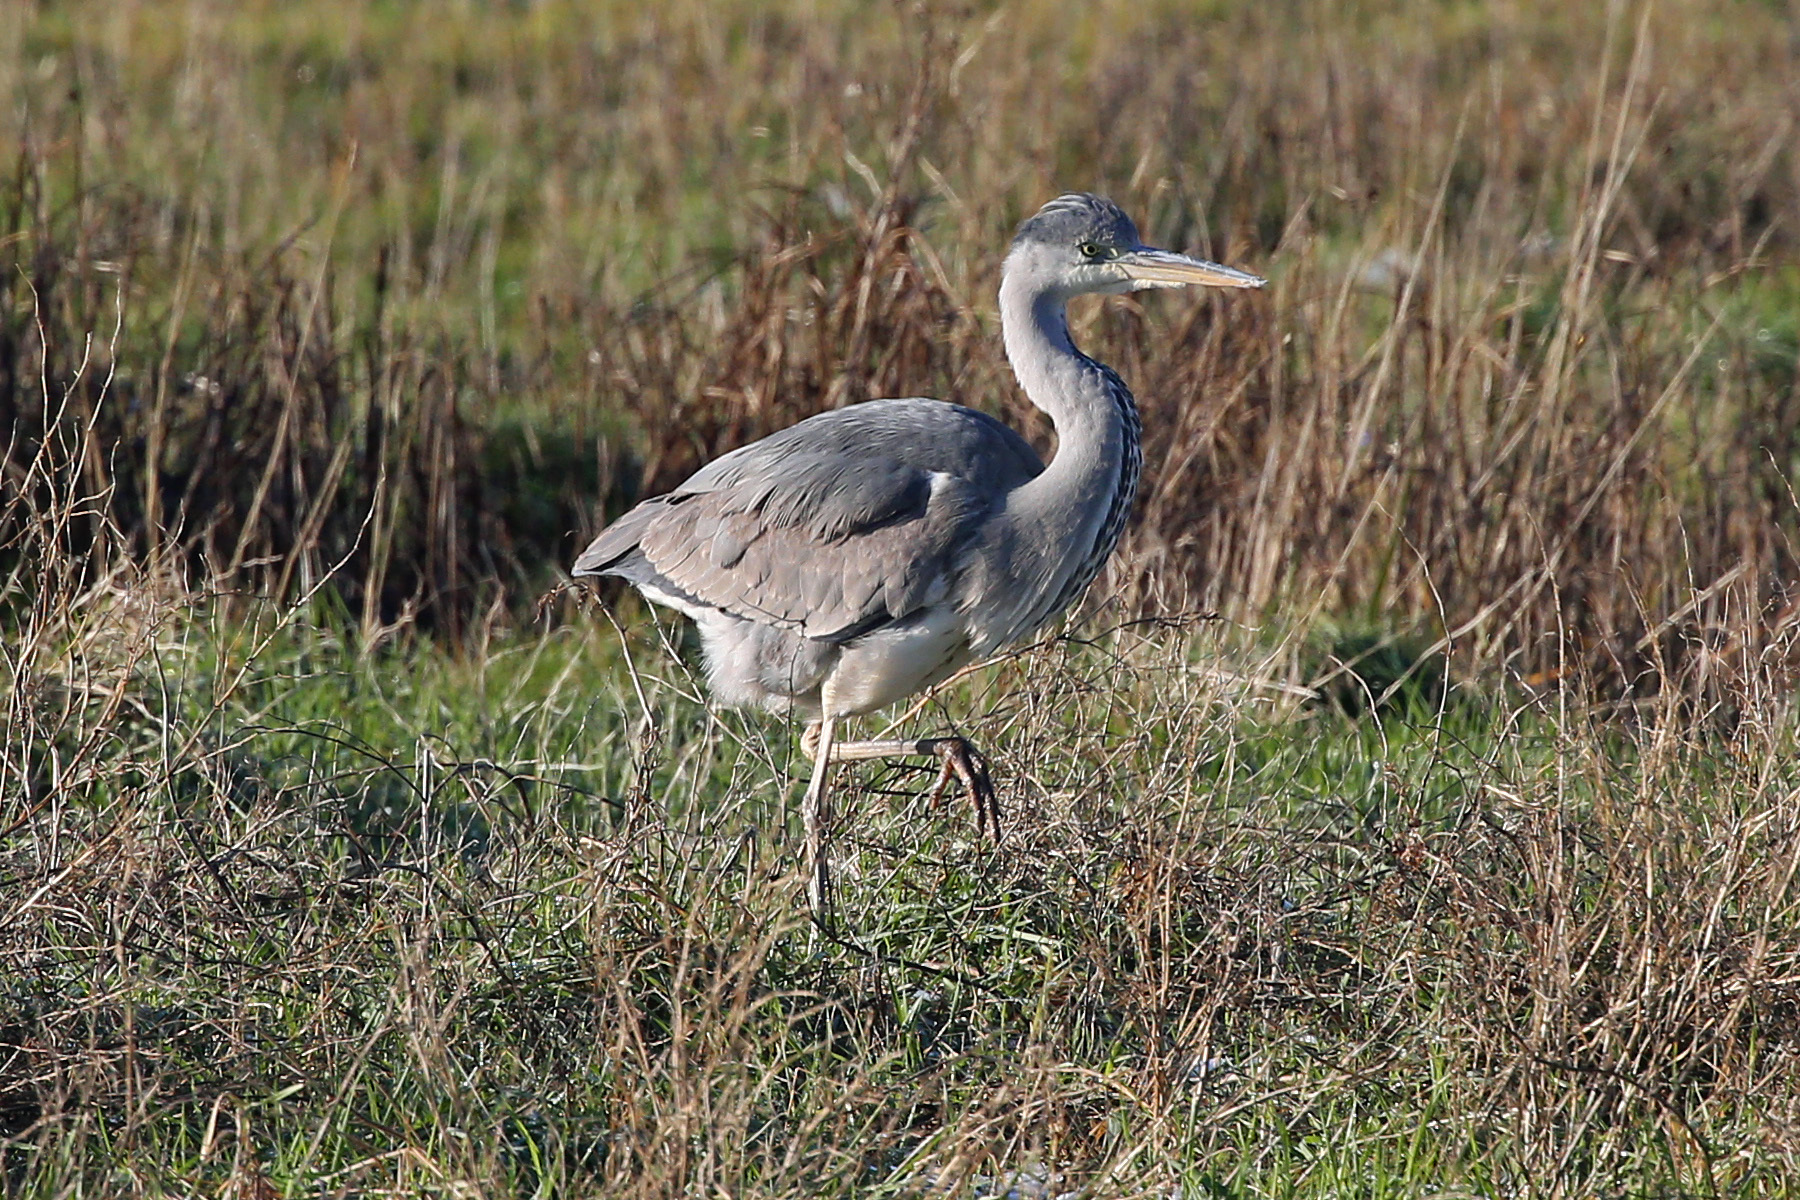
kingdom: Animalia
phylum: Chordata
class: Aves
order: Pelecaniformes
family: Ardeidae
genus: Ardea
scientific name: Ardea cinerea
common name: Grey heron
